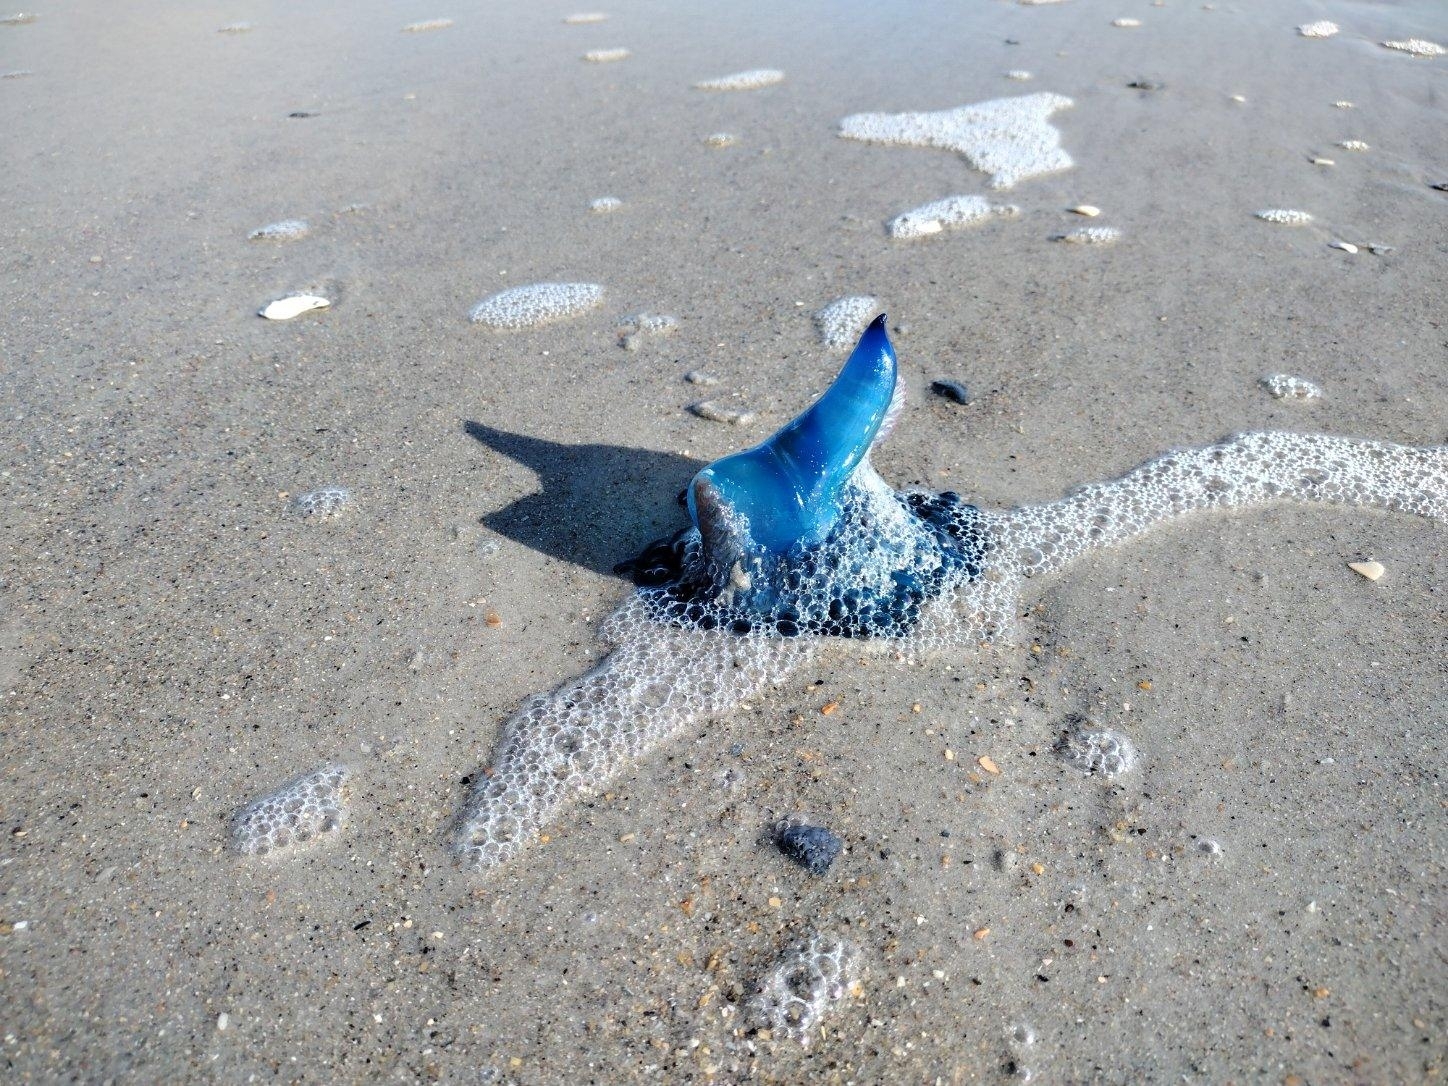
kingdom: Animalia
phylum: Cnidaria
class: Hydrozoa
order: Siphonophorae
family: Physaliidae
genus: Physalia
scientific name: Physalia physalis
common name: Portuguese man-of-war
